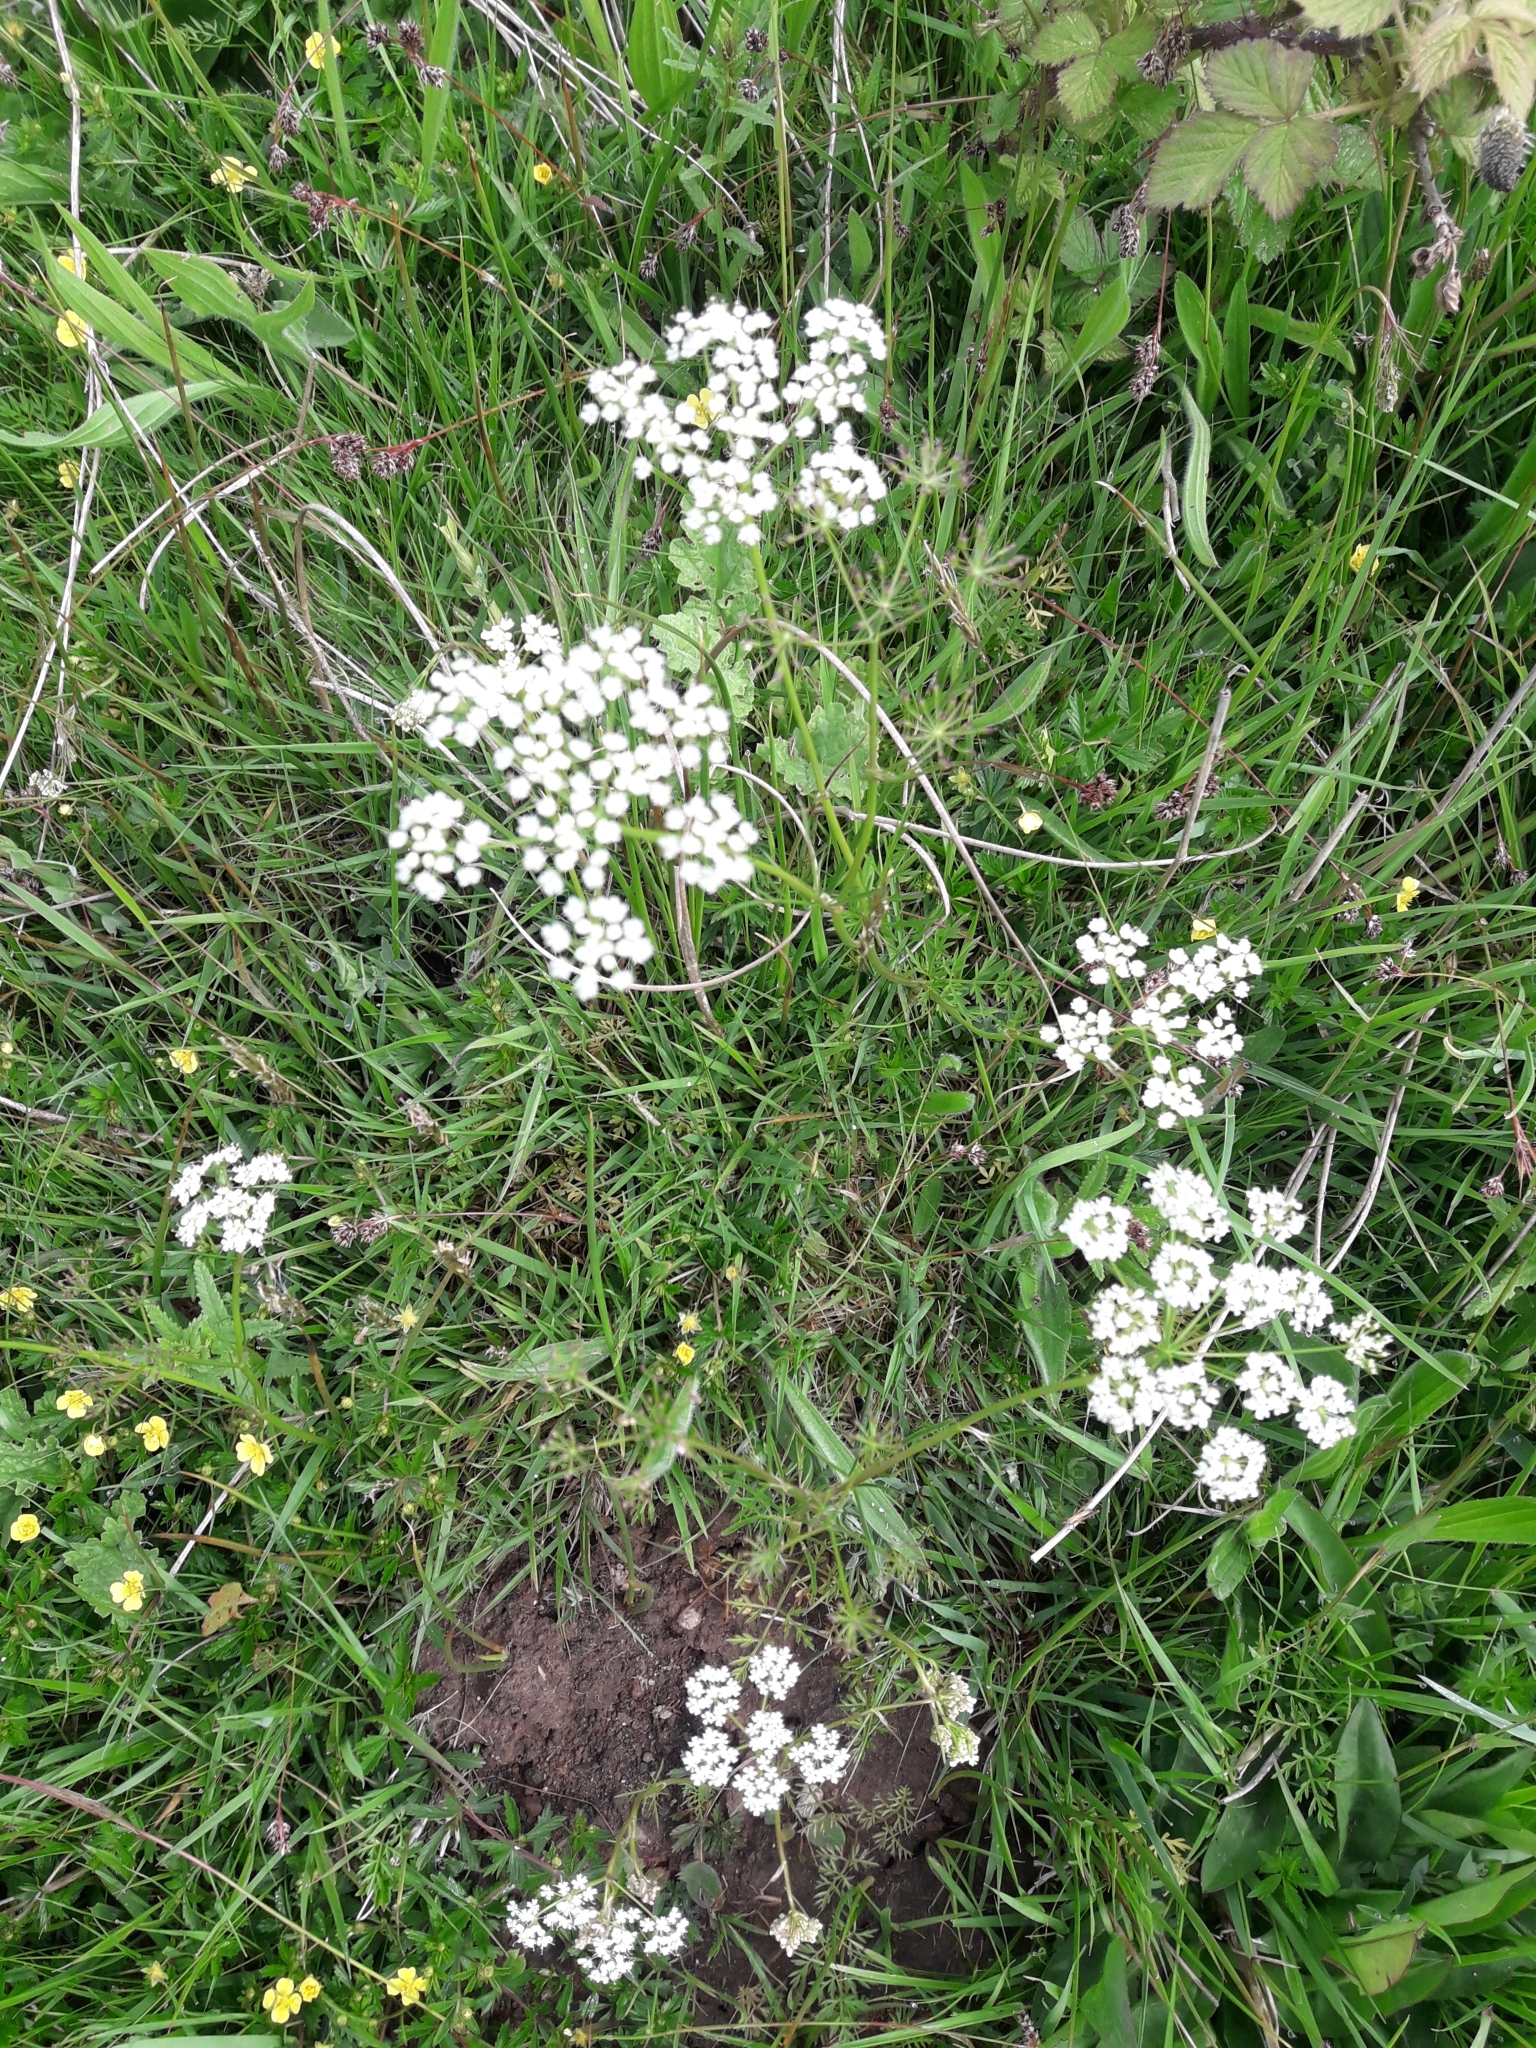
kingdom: Plantae
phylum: Tracheophyta
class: Magnoliopsida
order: Apiales
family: Apiaceae
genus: Conopodium
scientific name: Conopodium majus
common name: Pignut
